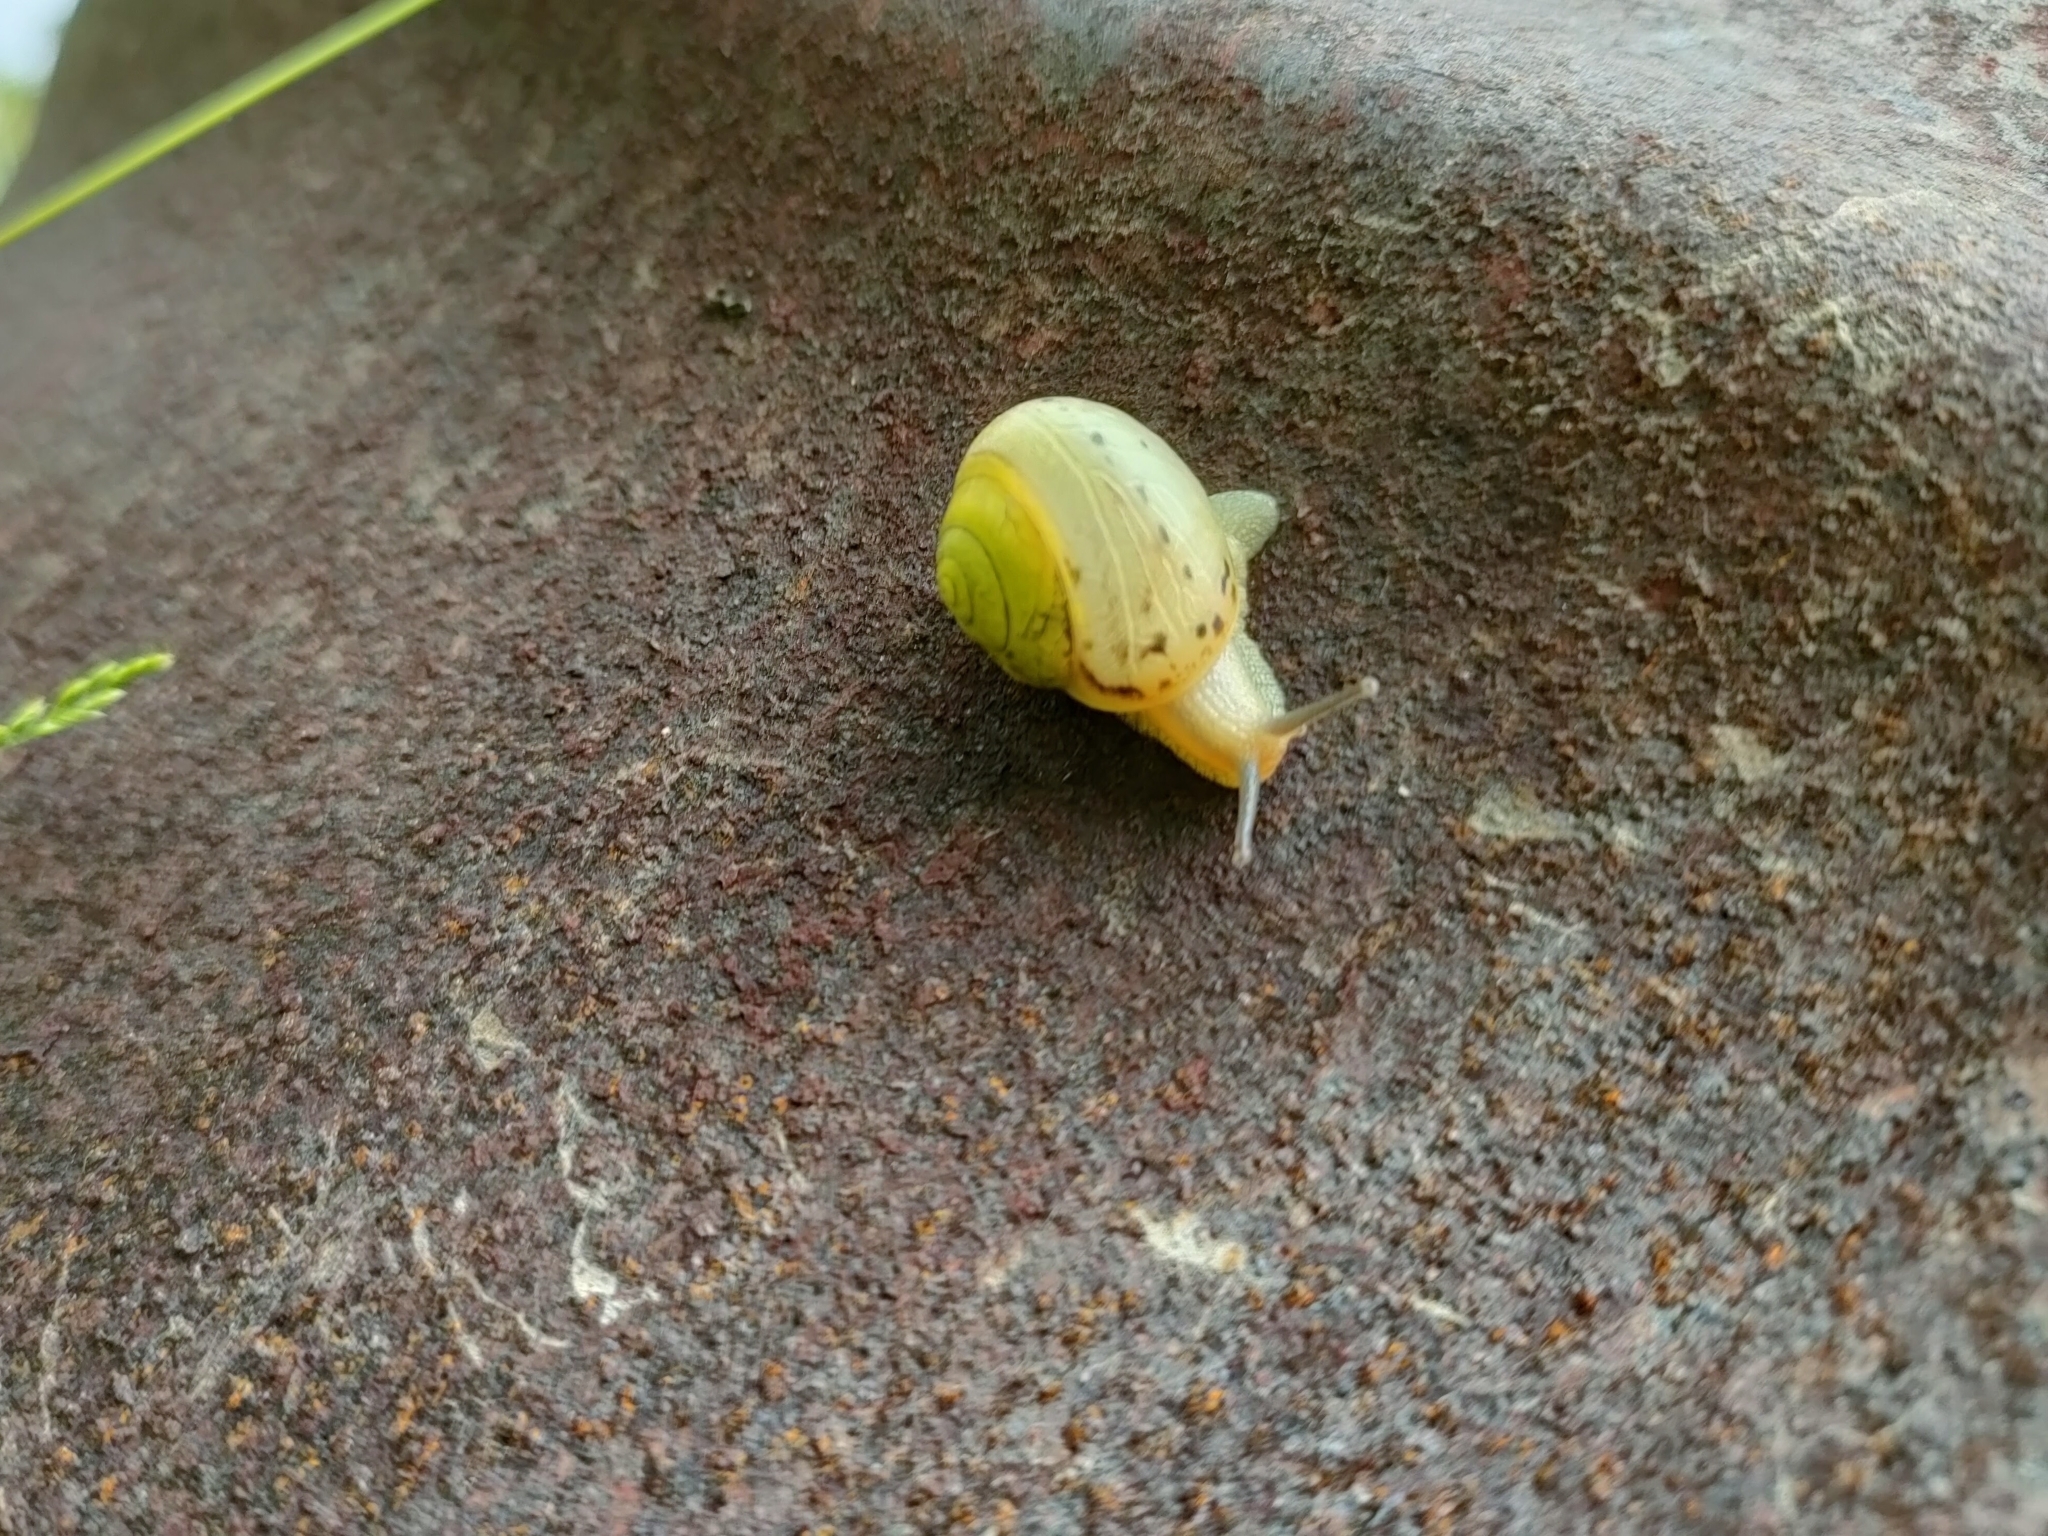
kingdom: Animalia
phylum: Mollusca
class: Gastropoda
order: Stylommatophora
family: Camaenidae
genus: Fruticicola
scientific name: Fruticicola fruticum
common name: Bush snail
